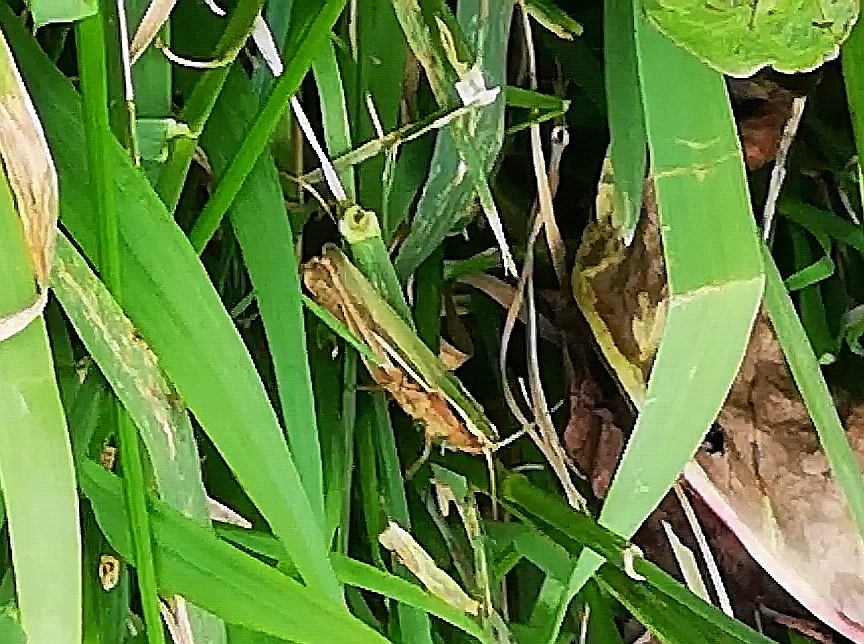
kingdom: Animalia
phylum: Arthropoda
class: Insecta
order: Orthoptera
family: Acrididae
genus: Chorthippus
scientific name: Chorthippus albomarginatus
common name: Lesser marsh grasshopper
